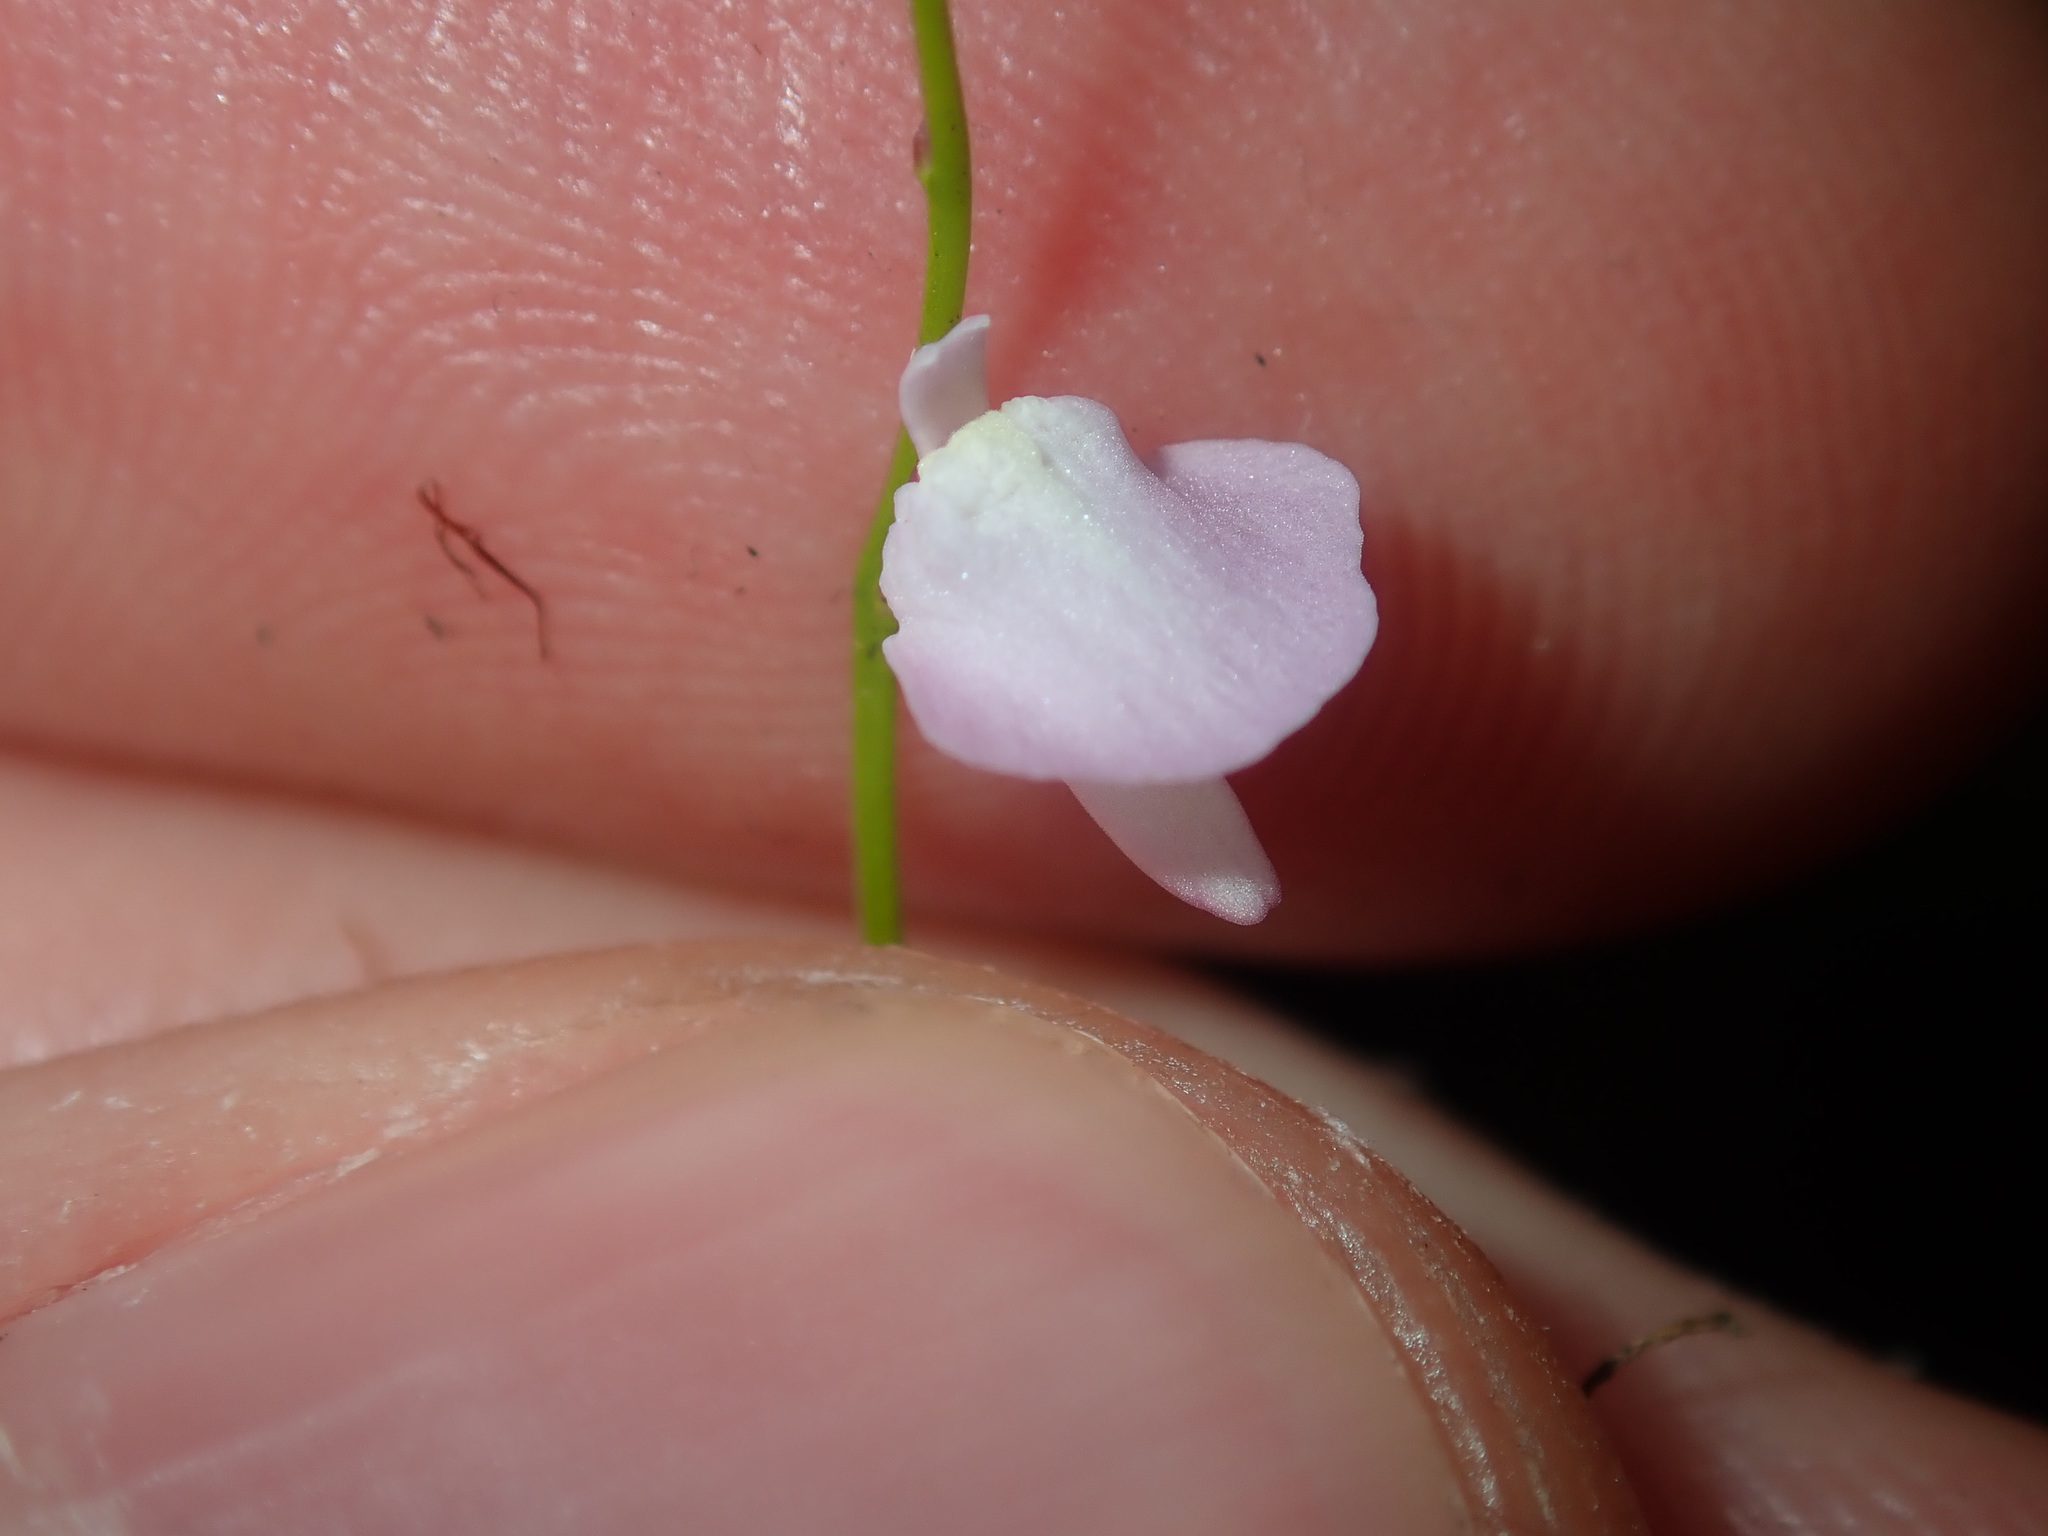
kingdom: Plantae
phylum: Tracheophyta
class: Magnoliopsida
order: Lamiales
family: Lentibulariaceae
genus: Utricularia
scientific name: Utricularia lateriflora
